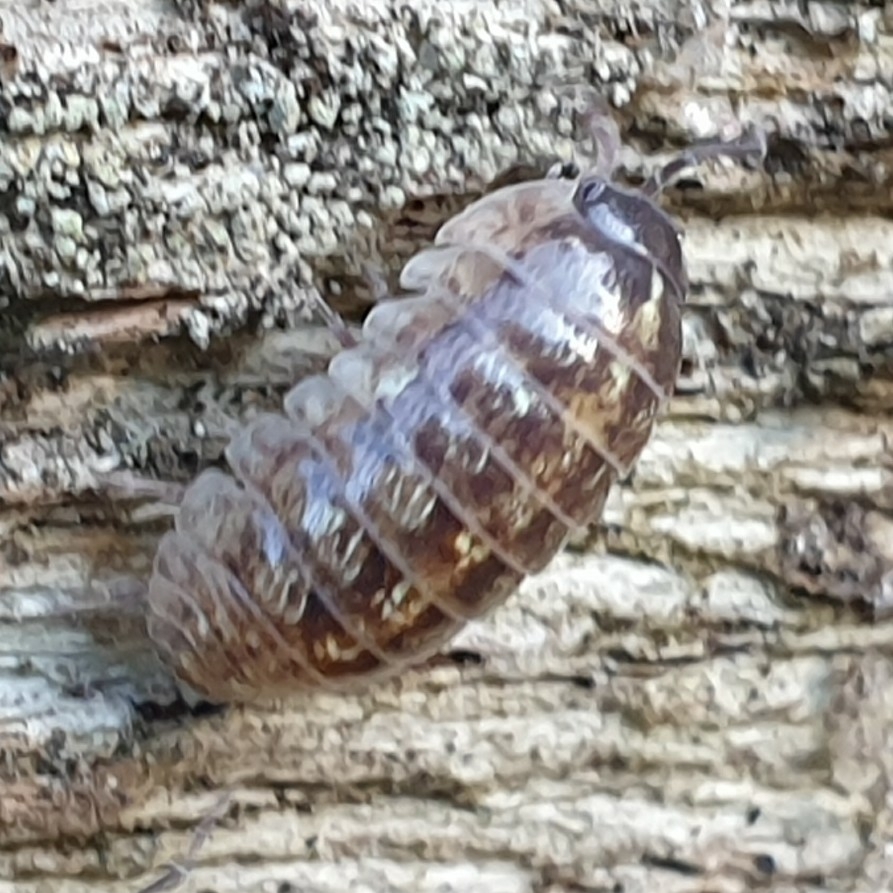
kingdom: Animalia
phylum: Arthropoda
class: Malacostraca
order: Isopoda
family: Armadillidiidae
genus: Armadillidium
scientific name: Armadillidium vulgare
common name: Common pill woodlouse
